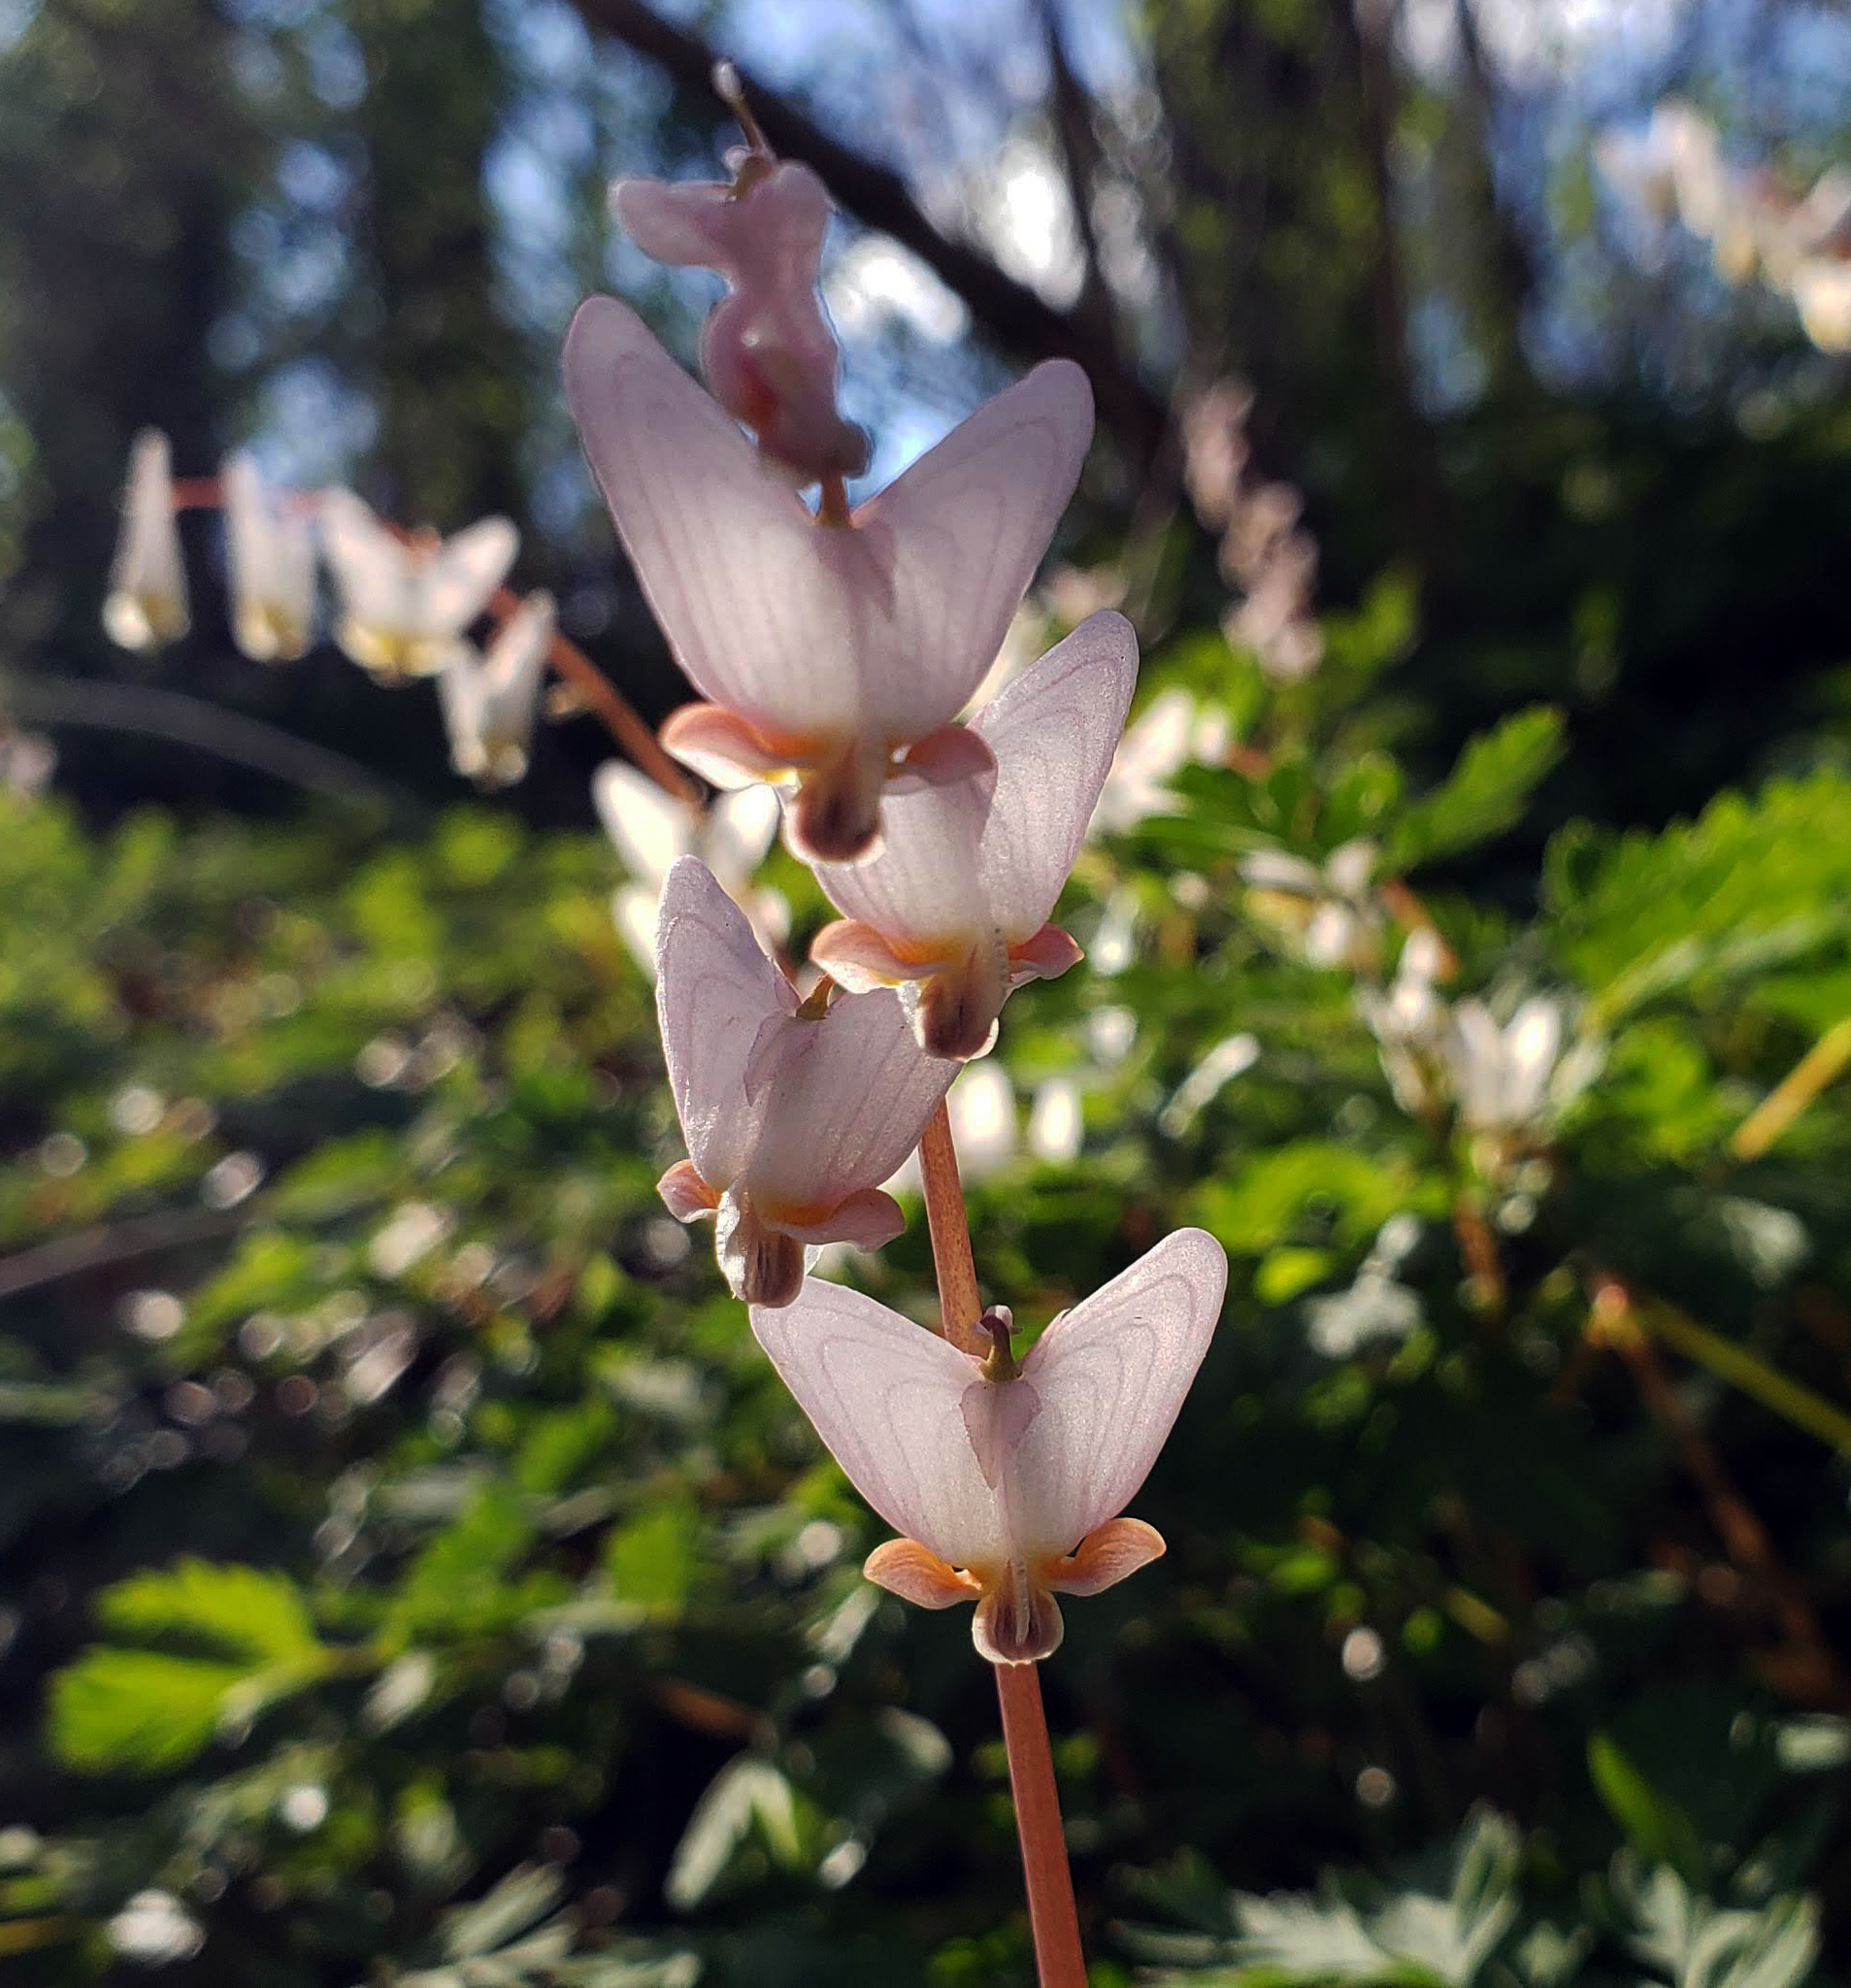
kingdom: Plantae
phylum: Tracheophyta
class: Magnoliopsida
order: Ranunculales
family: Papaveraceae
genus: Dicentra
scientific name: Dicentra cucullaria
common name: Dutchman's breeches
